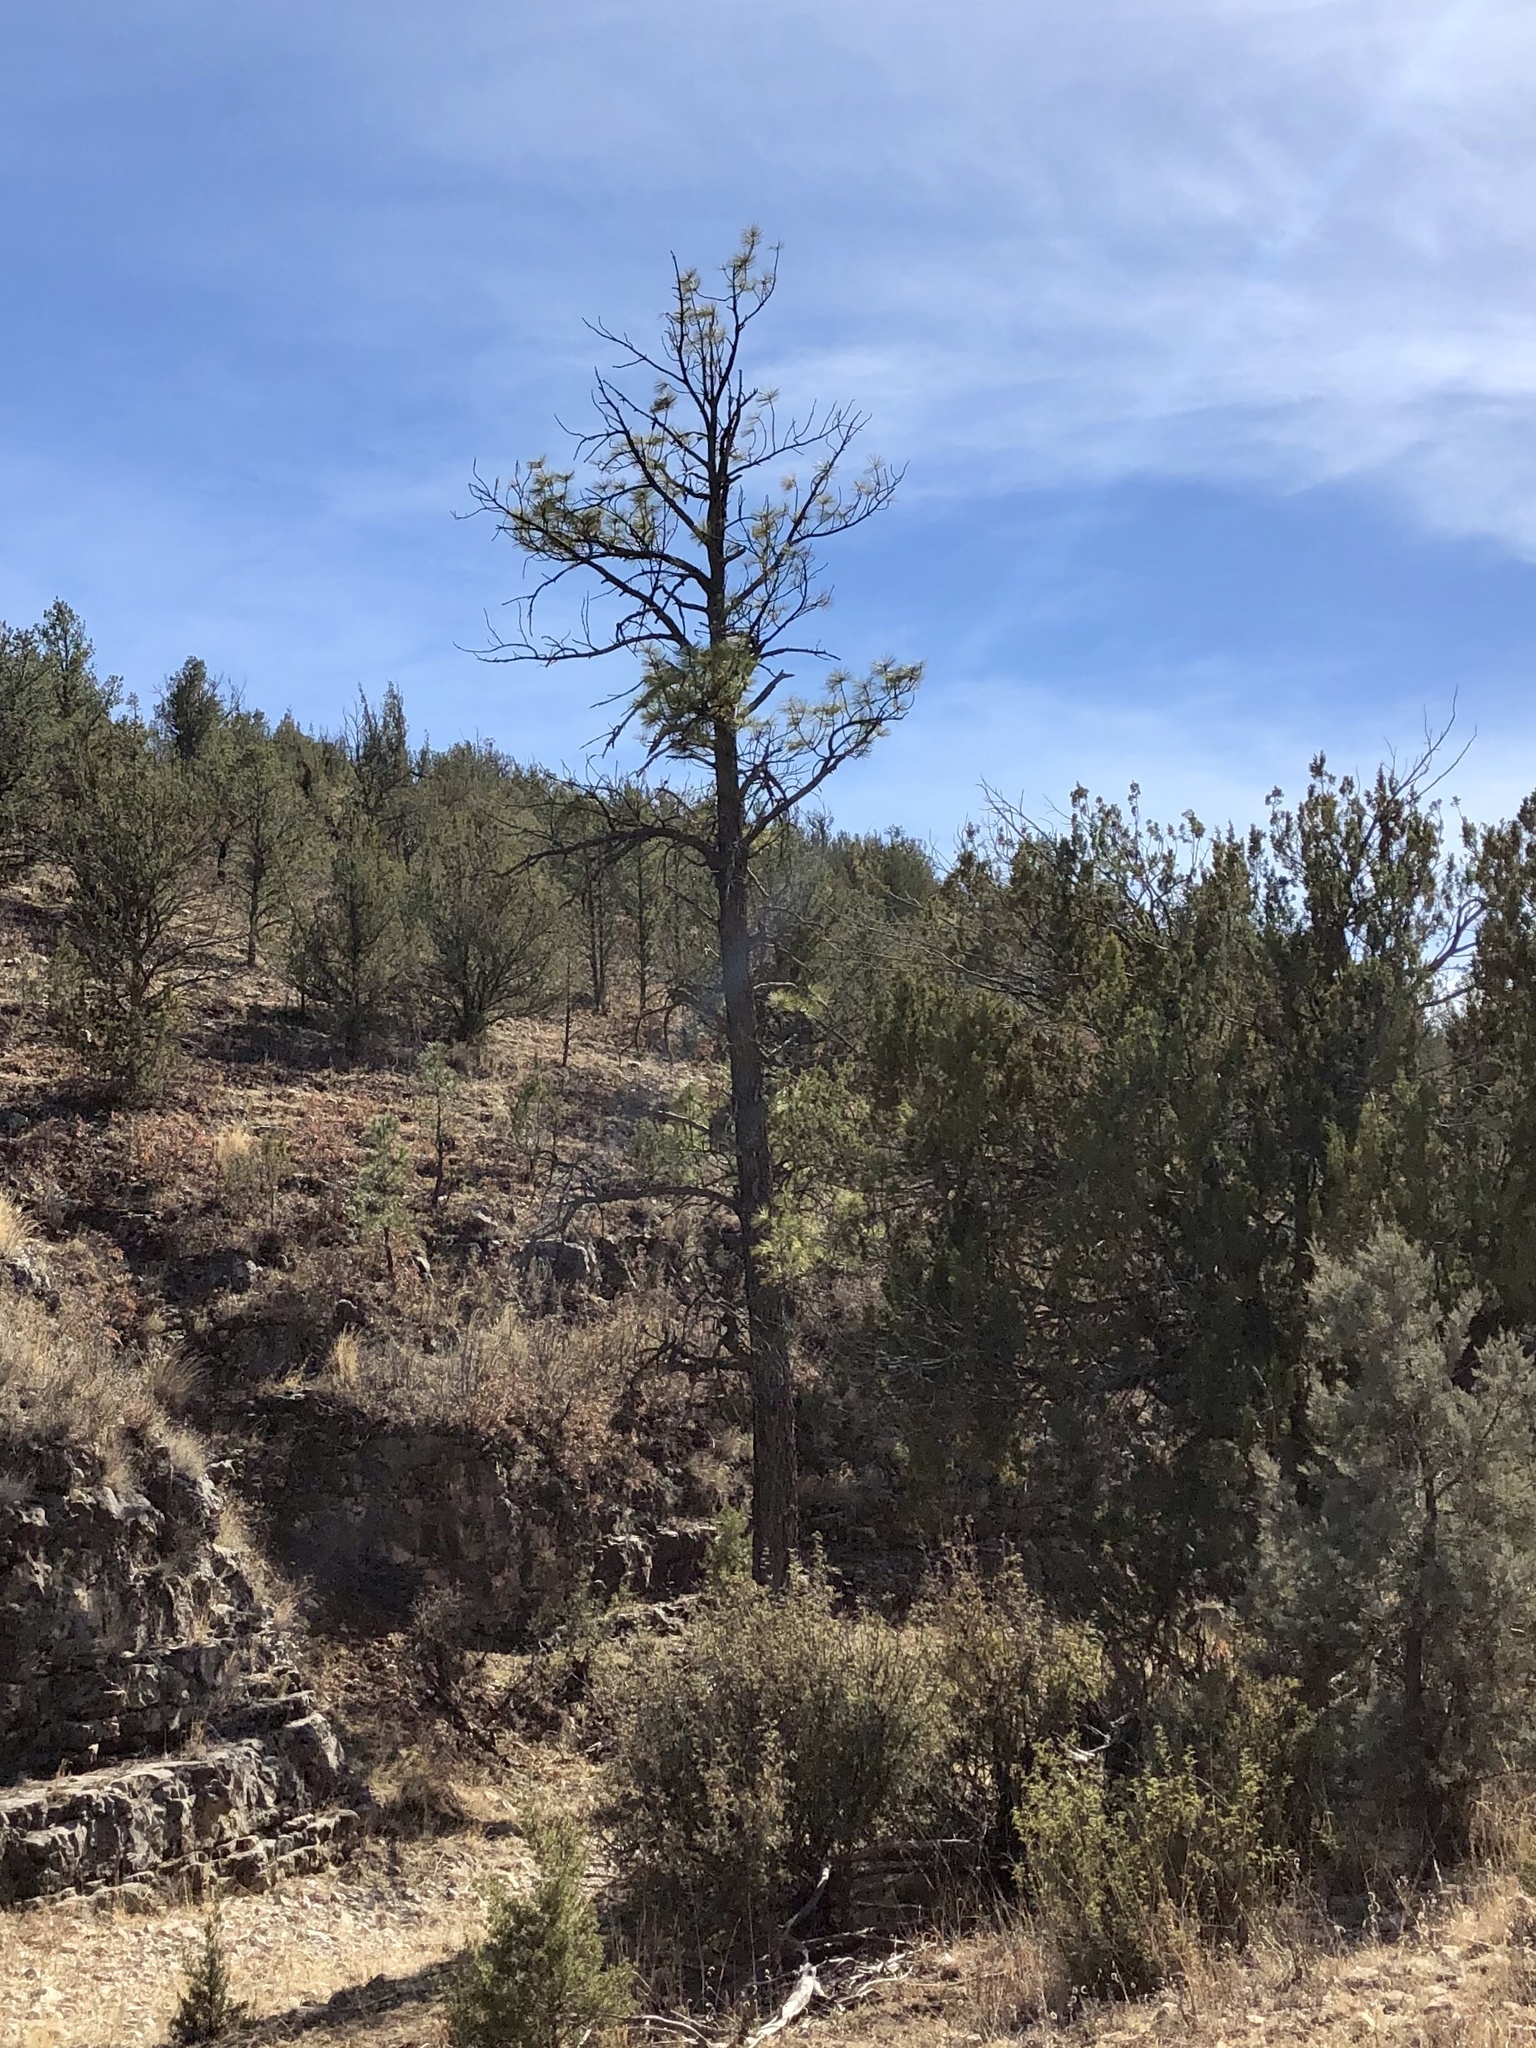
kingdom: Plantae
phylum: Tracheophyta
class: Pinopsida
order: Pinales
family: Pinaceae
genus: Pinus
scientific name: Pinus ponderosa
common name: Western yellow-pine
